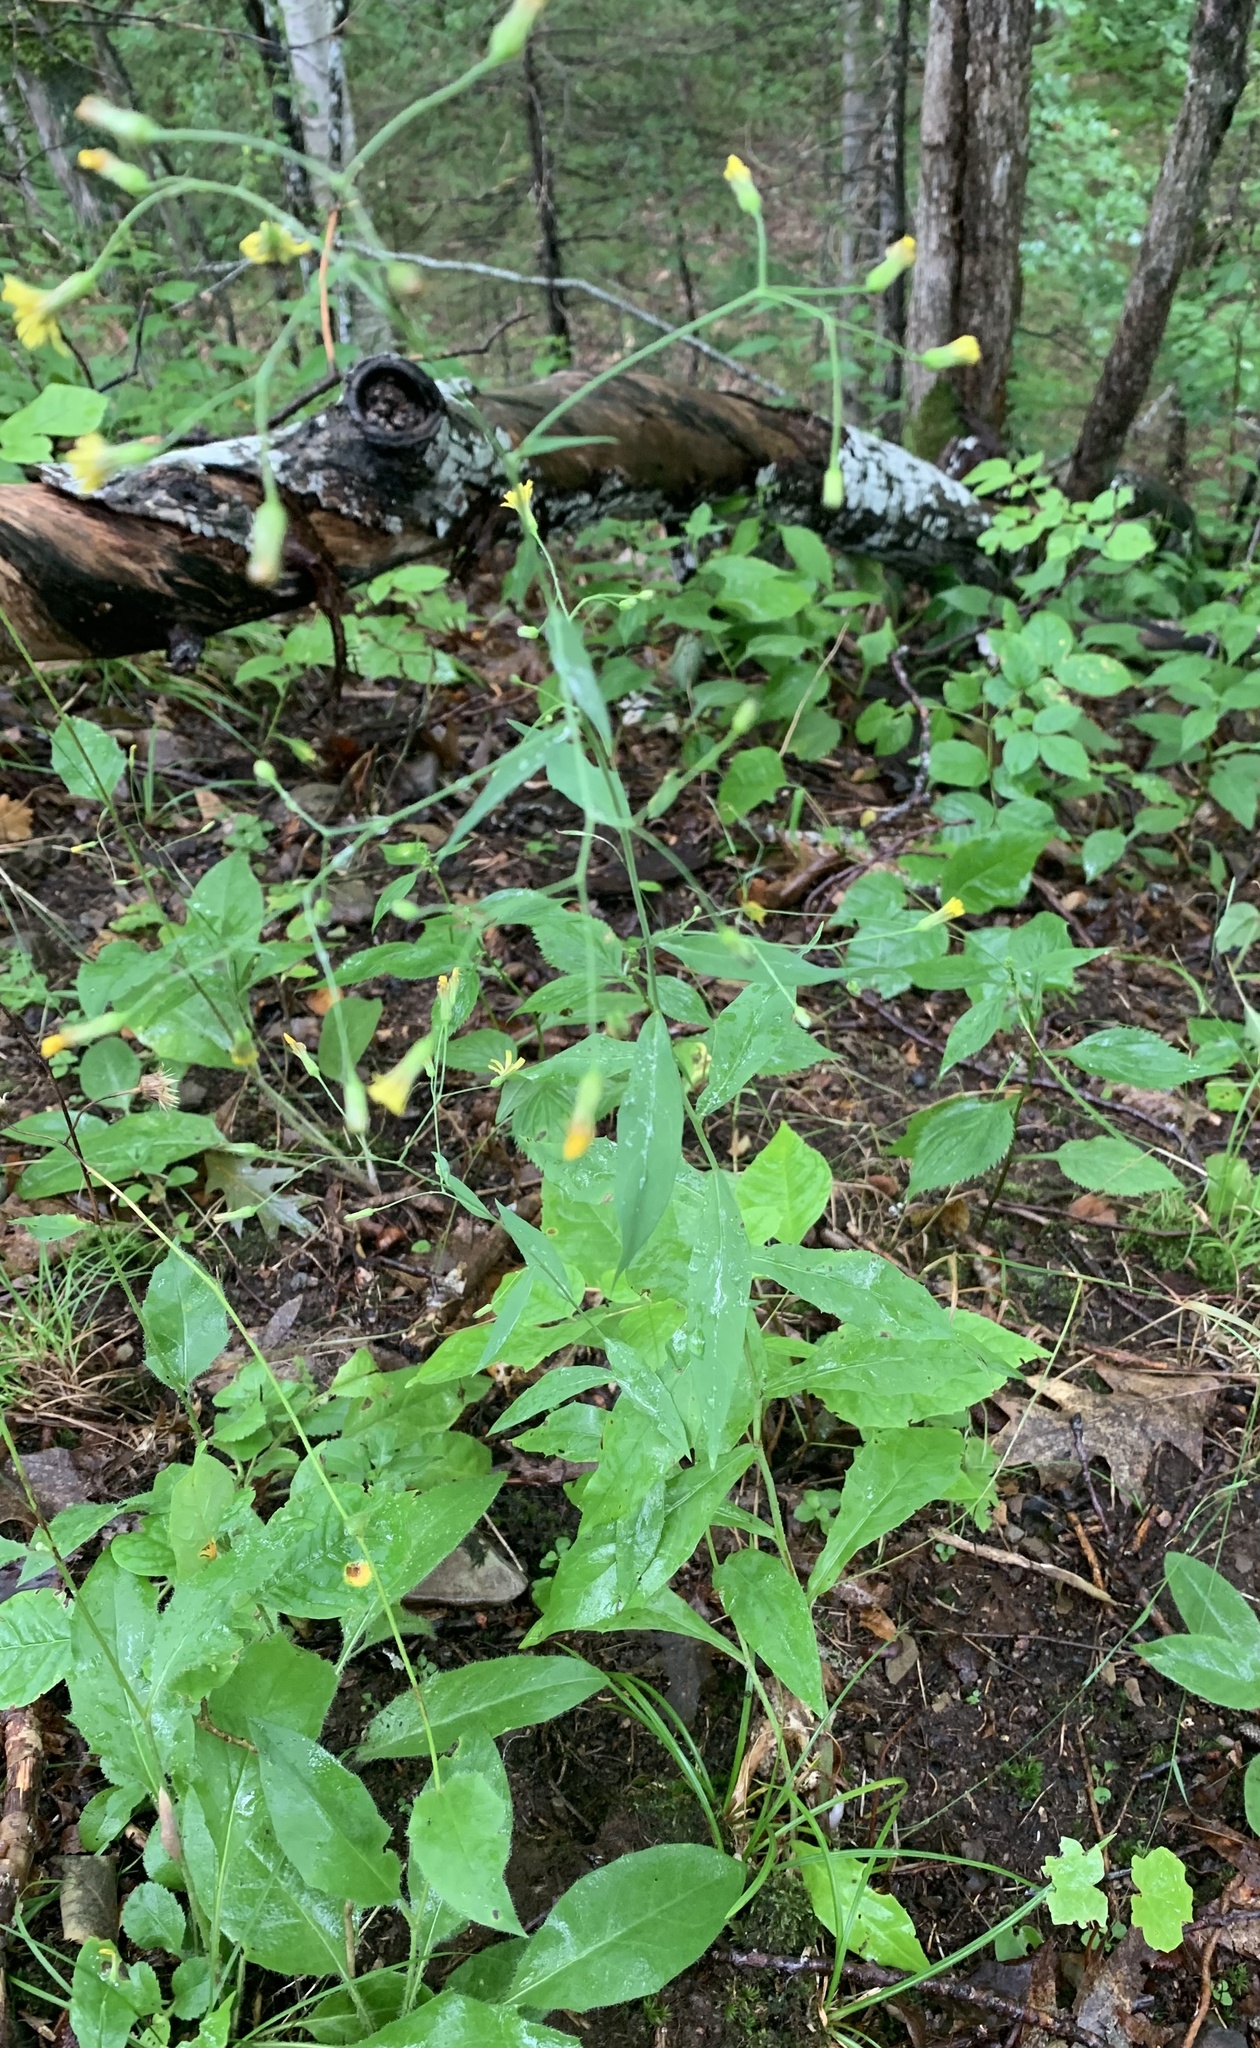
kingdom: Plantae
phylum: Tracheophyta
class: Magnoliopsida
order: Asterales
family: Asteraceae
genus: Hieracium
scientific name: Hieracium paniculatum
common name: Allegheny hawkweed
